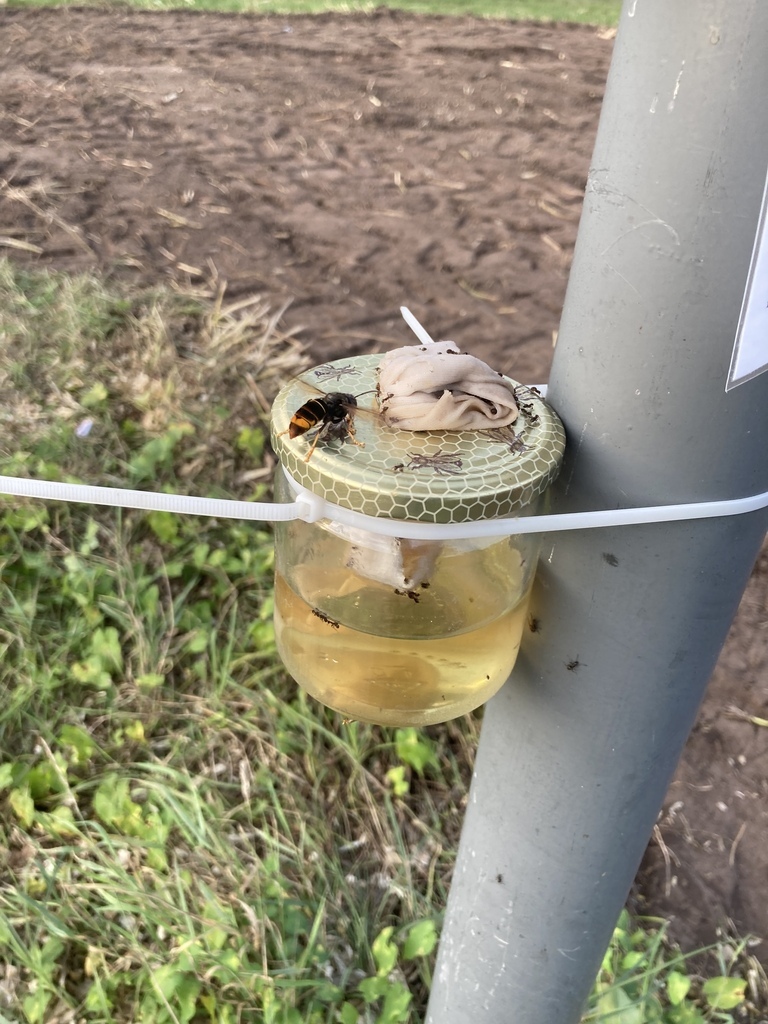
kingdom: Animalia
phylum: Arthropoda
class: Insecta
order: Hymenoptera
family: Vespidae
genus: Vespa
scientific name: Vespa velutina
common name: Asian hornet
